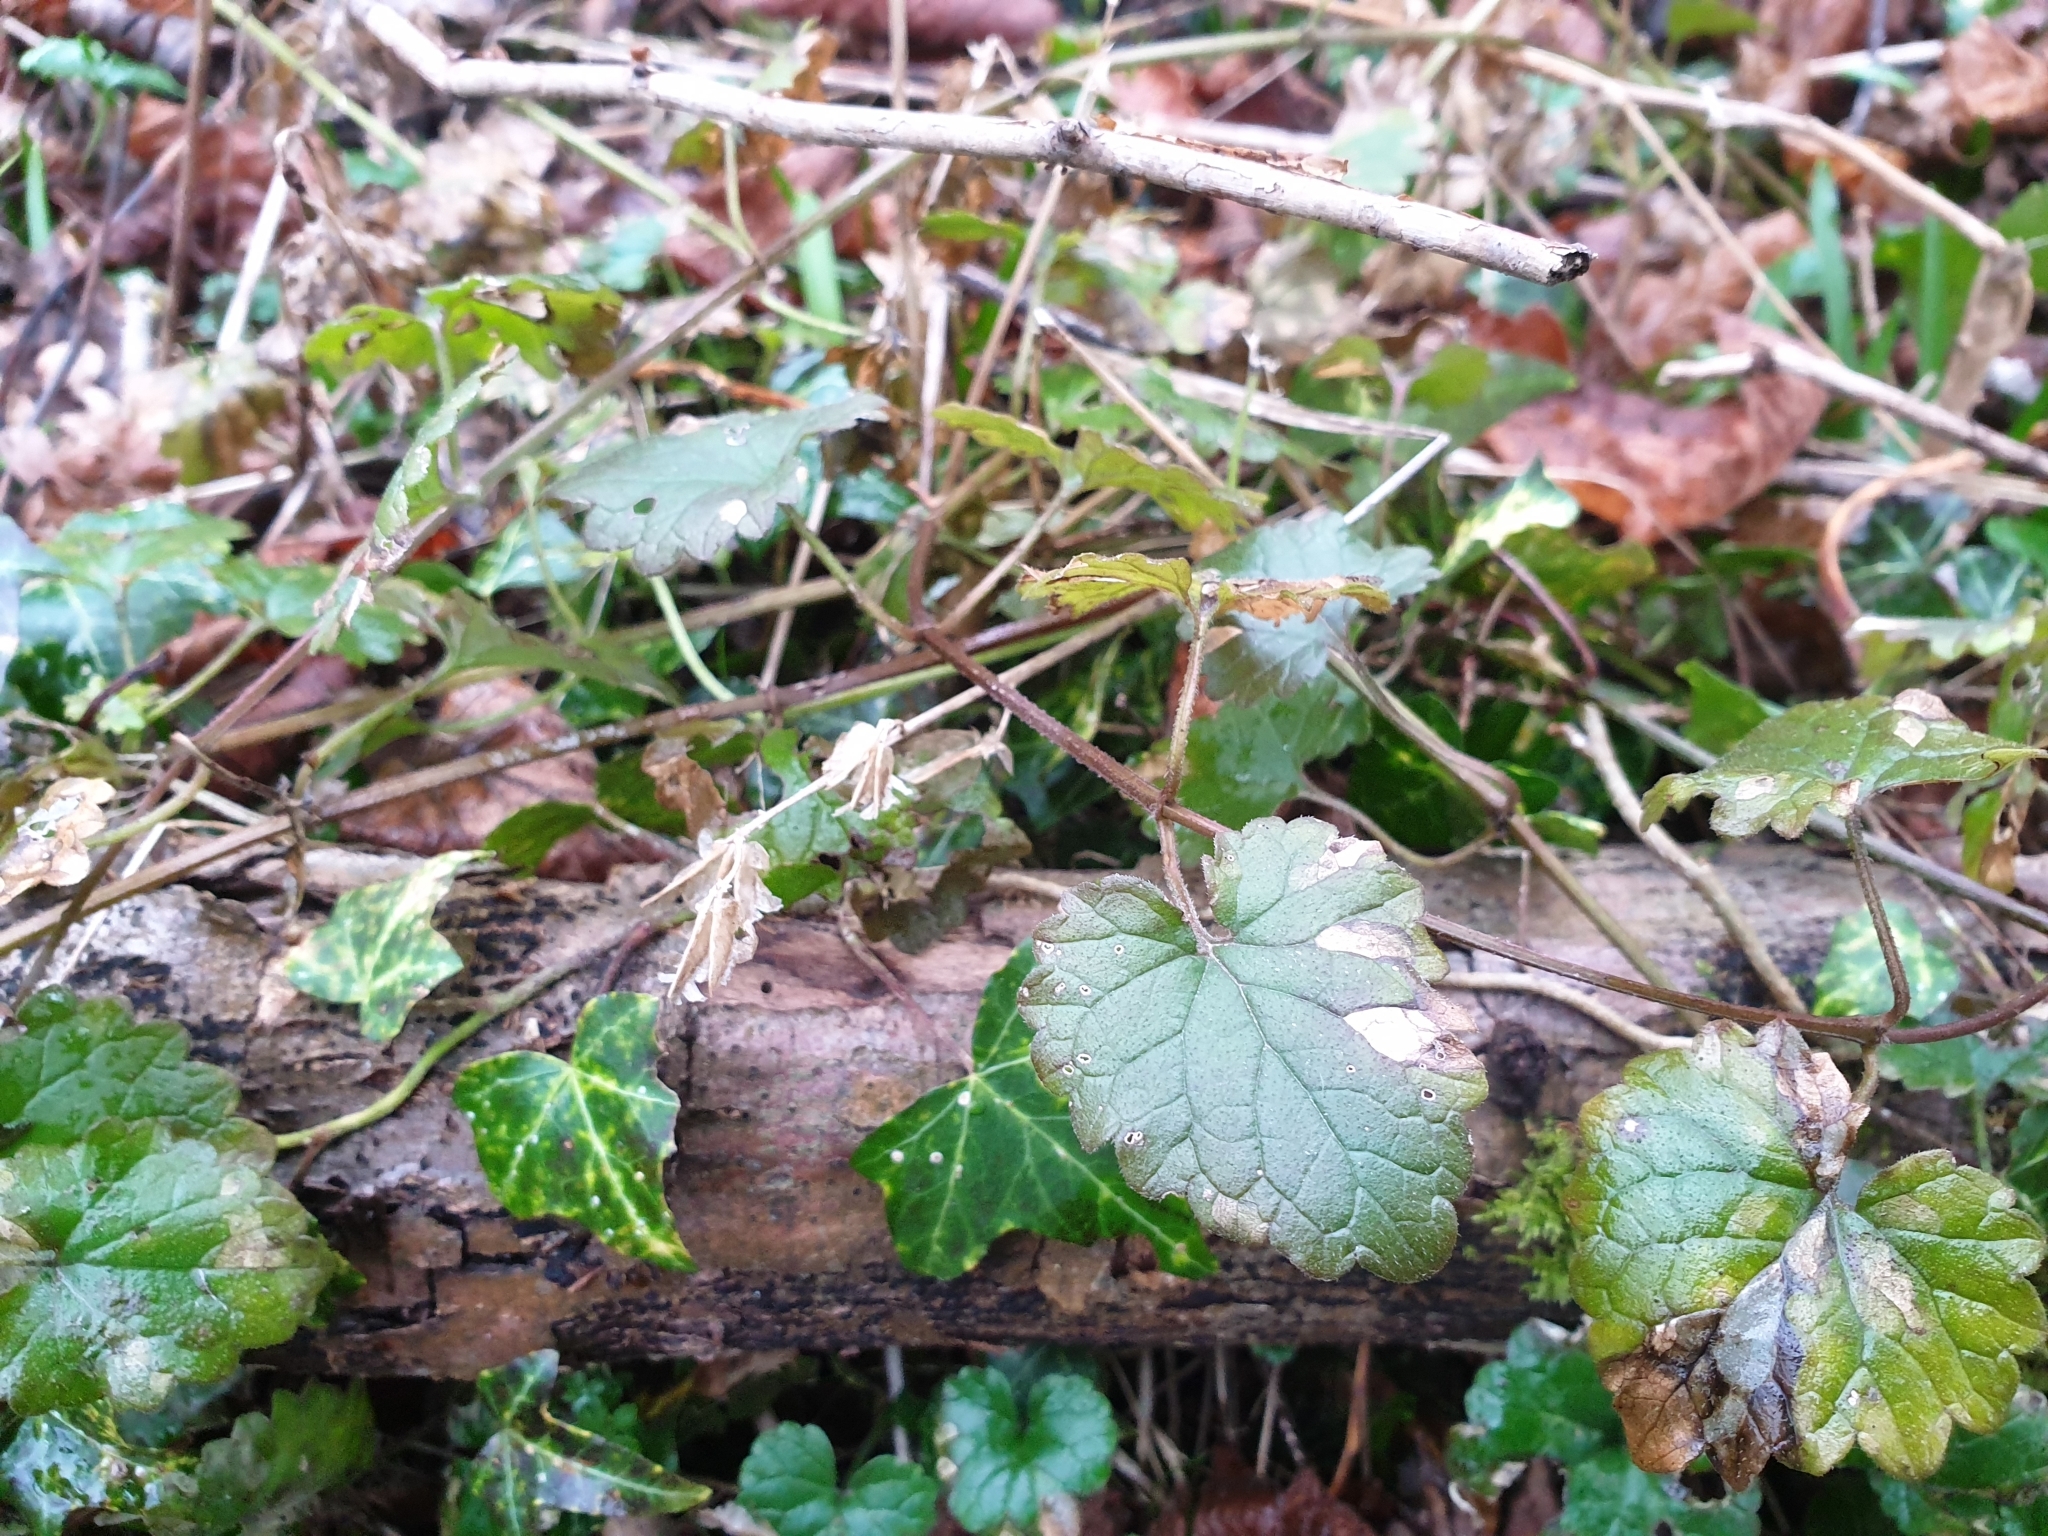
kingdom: Plantae
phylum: Tracheophyta
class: Magnoliopsida
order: Lamiales
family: Lamiaceae
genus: Glechoma
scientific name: Glechoma hederacea
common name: Ground ivy
